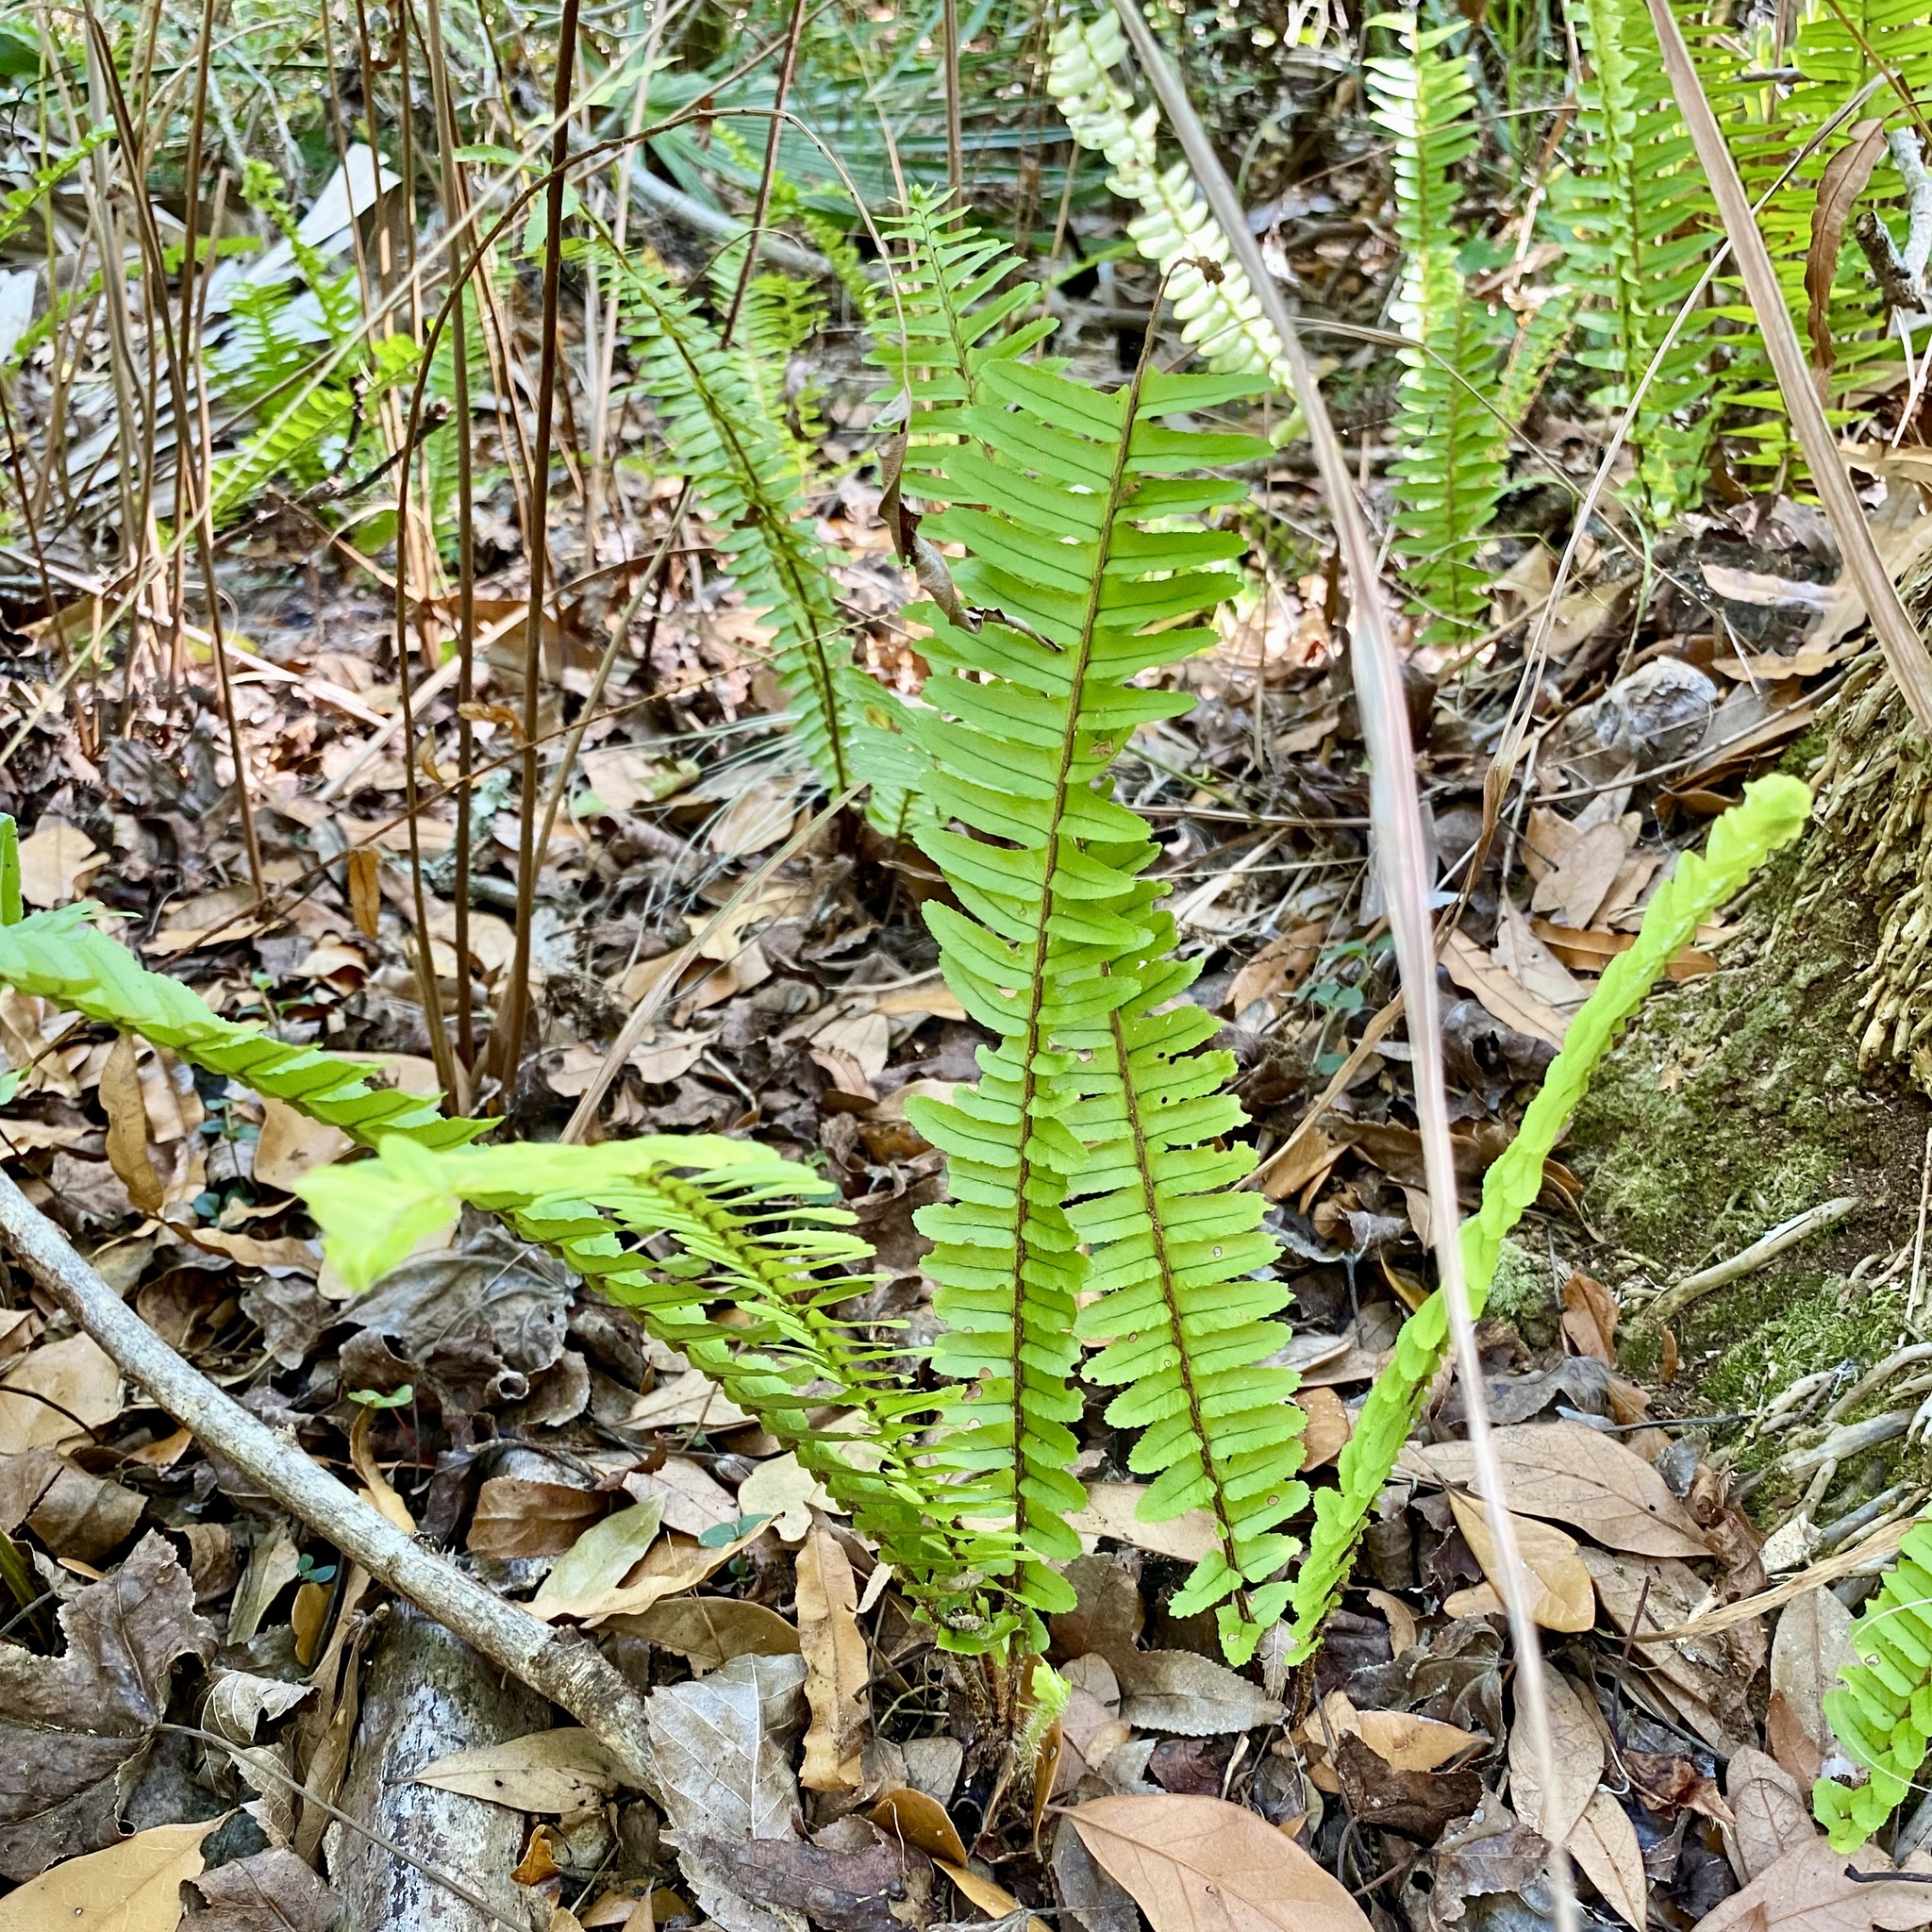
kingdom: Plantae
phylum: Tracheophyta
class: Polypodiopsida
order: Polypodiales
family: Nephrolepidaceae
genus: Nephrolepis
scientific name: Nephrolepis cordifolia
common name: Narrow swordfern
